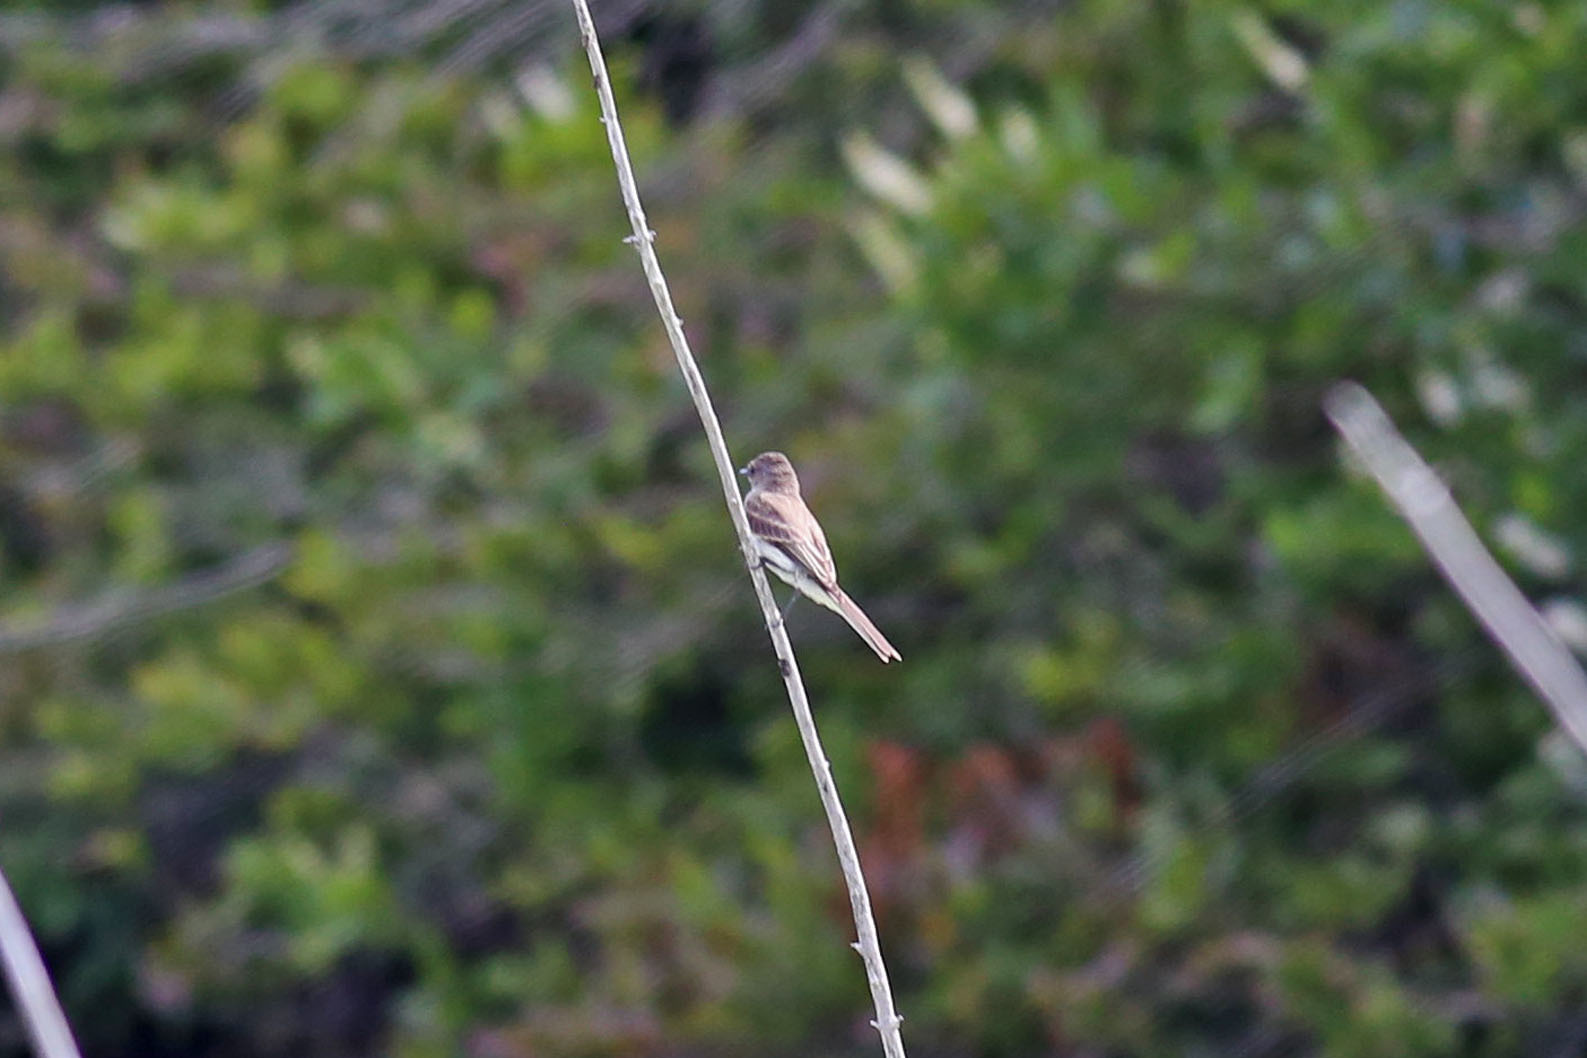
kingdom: Animalia
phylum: Chordata
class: Aves
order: Passeriformes
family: Tyrannidae
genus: Sayornis
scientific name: Sayornis phoebe
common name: Eastern phoebe
